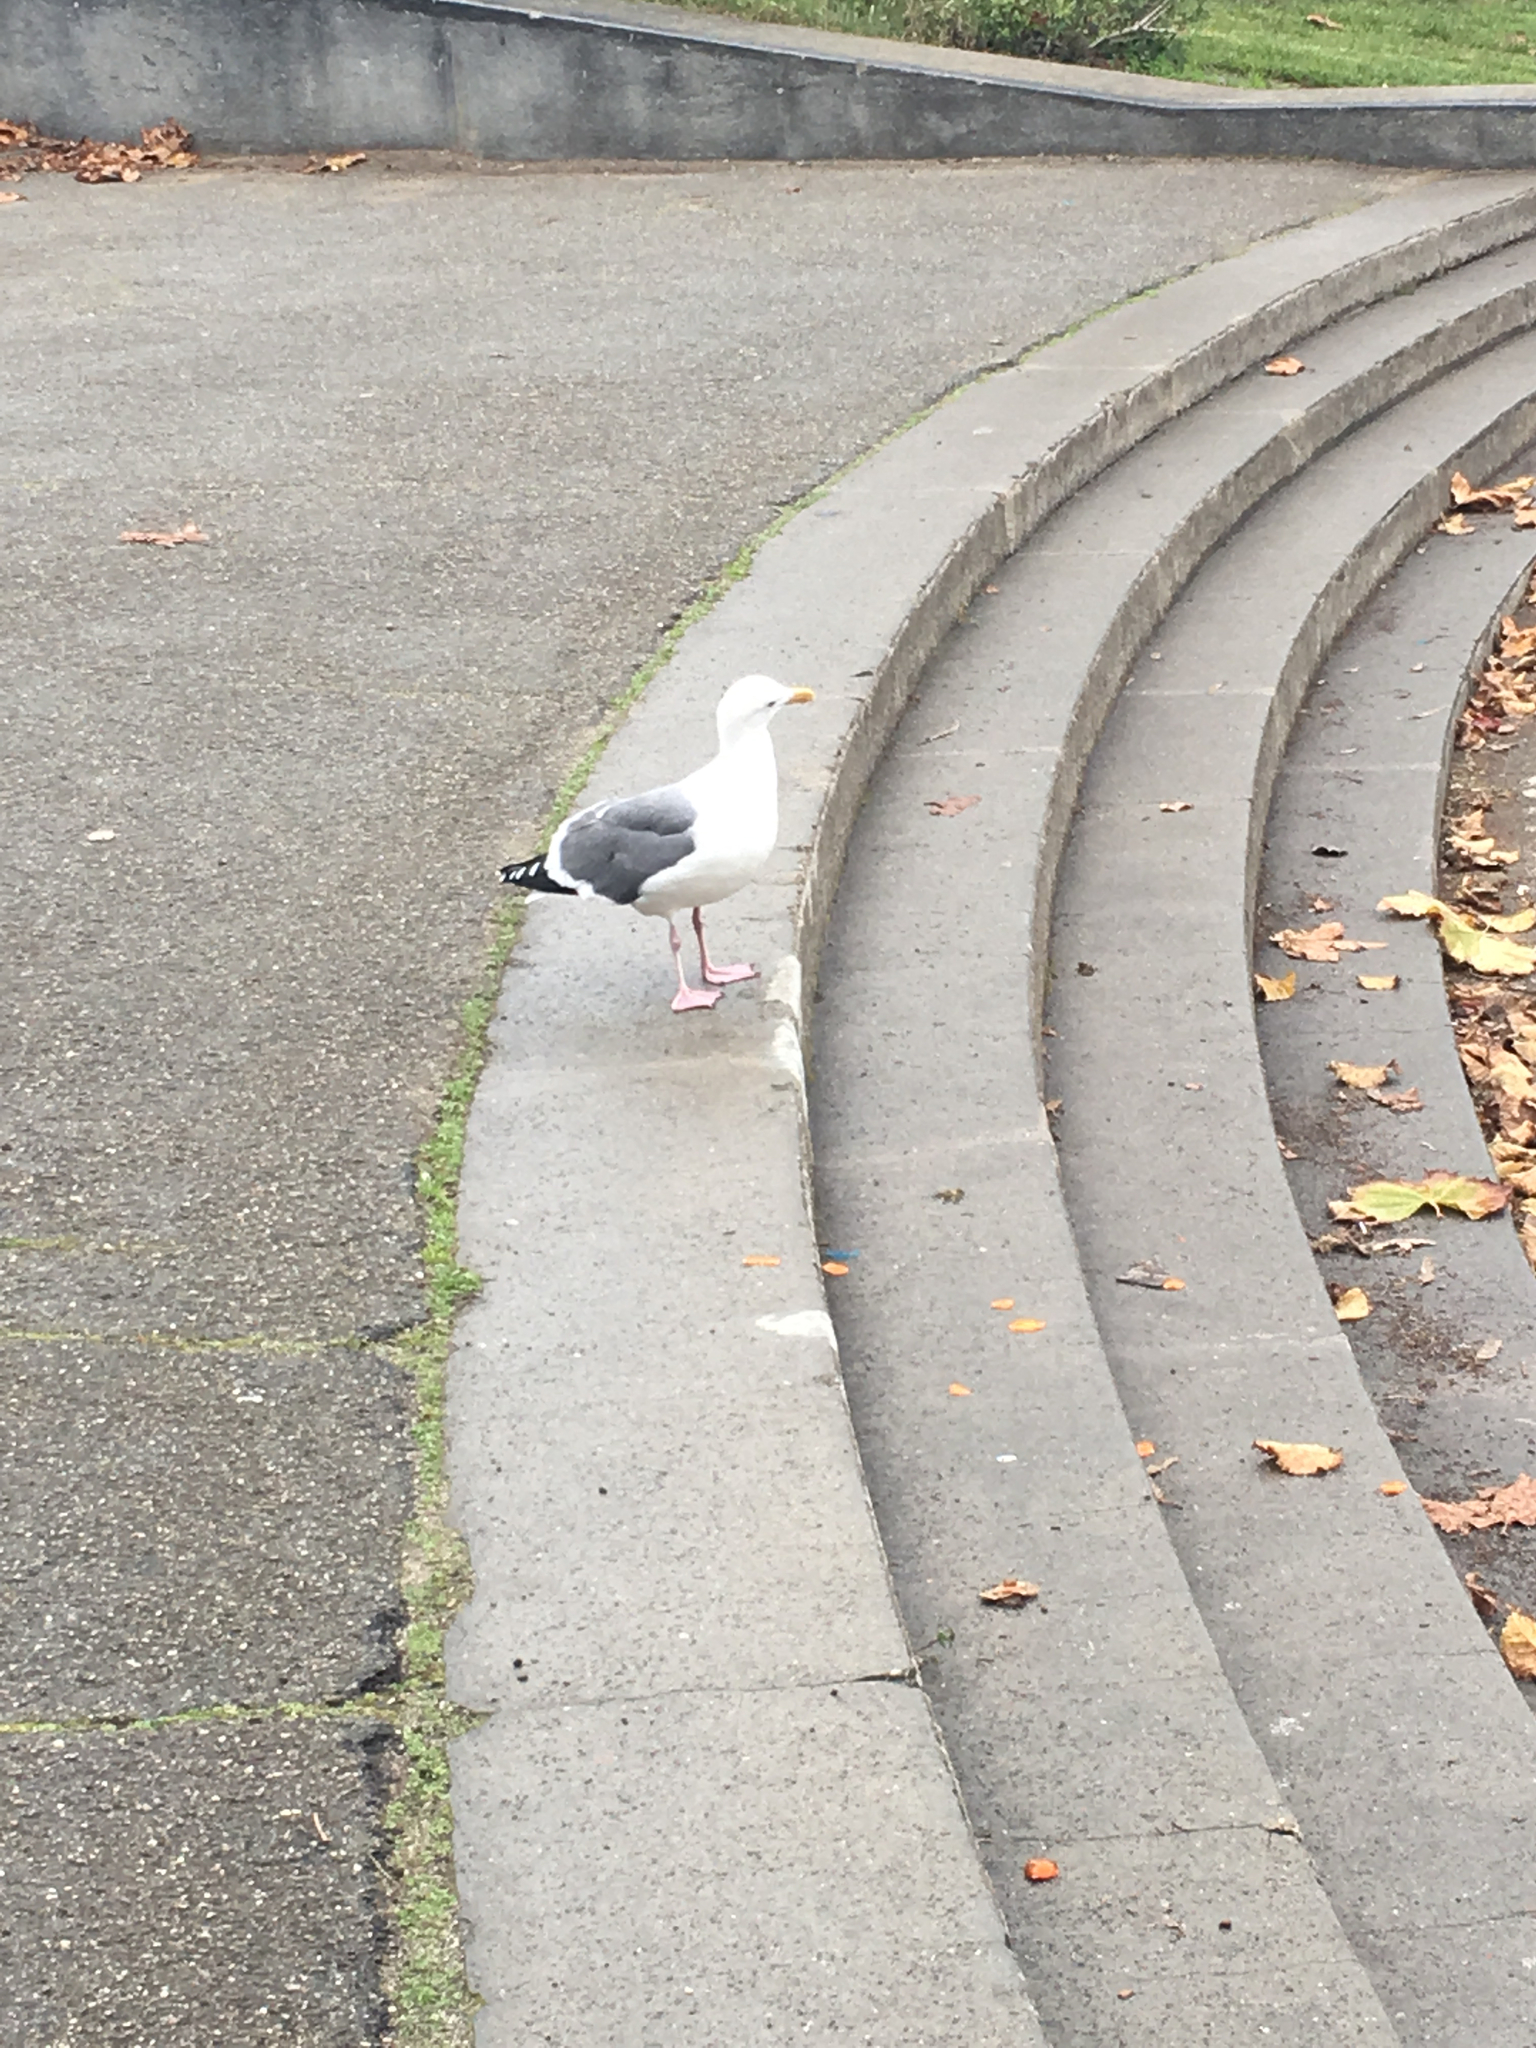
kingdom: Animalia
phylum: Chordata
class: Aves
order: Charadriiformes
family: Laridae
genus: Larus
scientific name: Larus occidentalis
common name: Western gull
